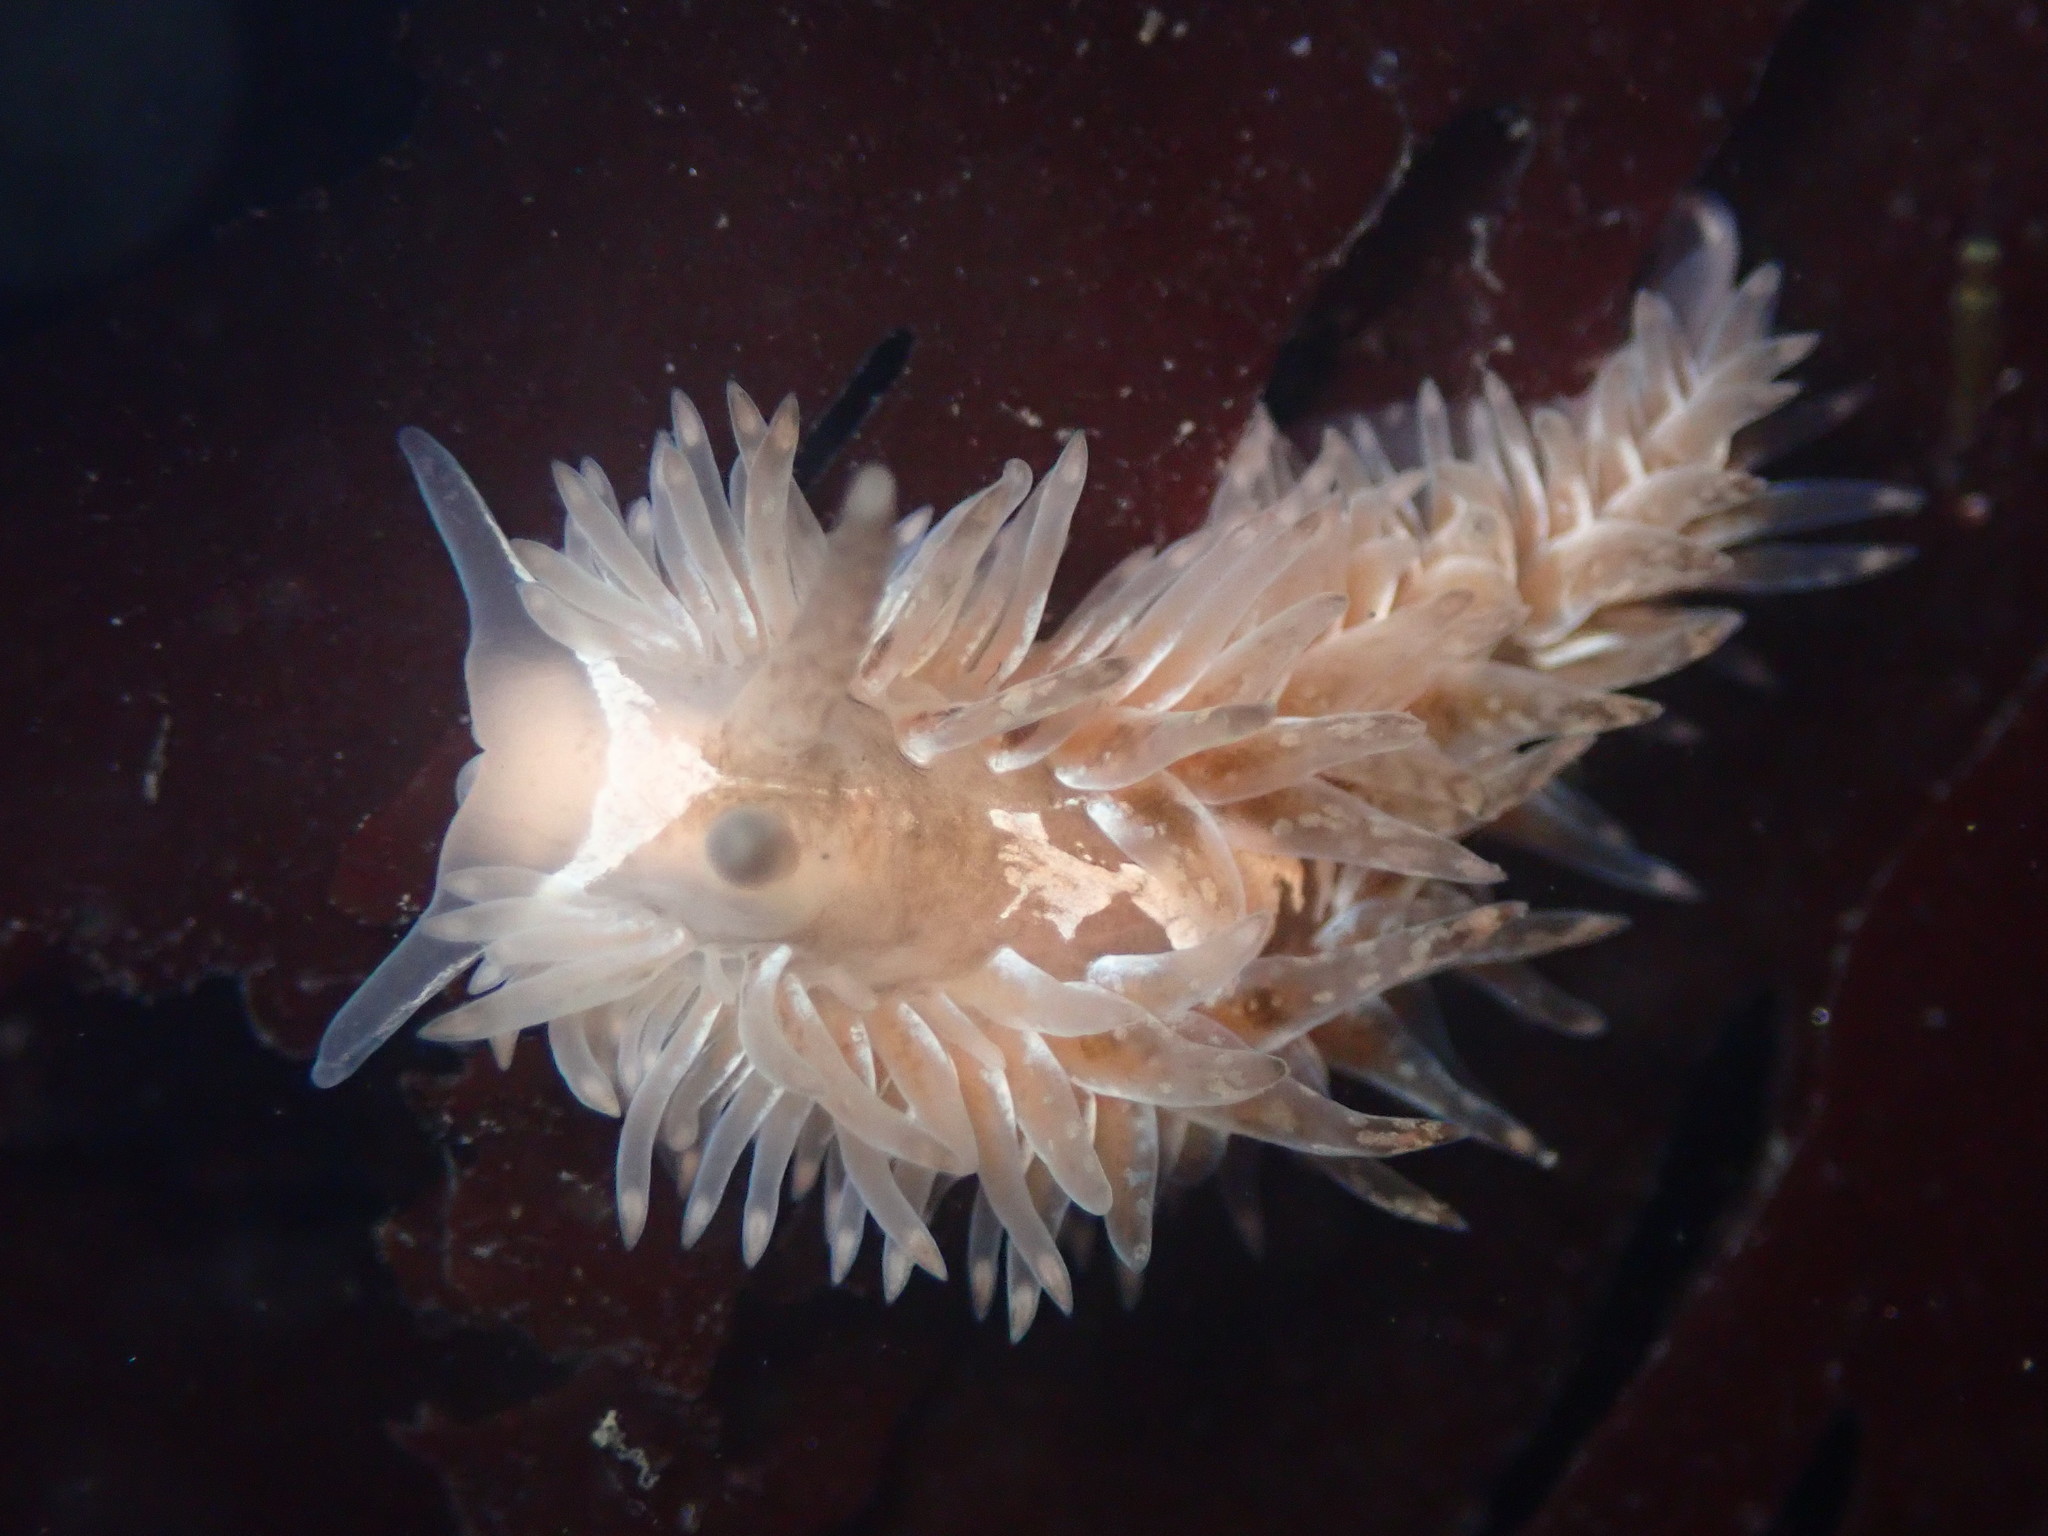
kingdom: Animalia
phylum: Mollusca
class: Gastropoda
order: Nudibranchia
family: Aeolidiidae
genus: Aeolidia
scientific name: Aeolidia loui
